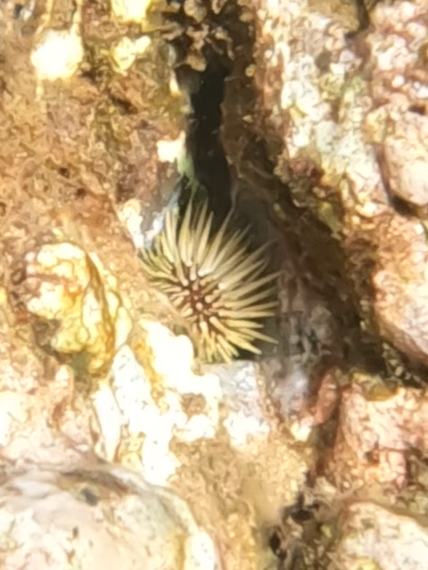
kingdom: Animalia
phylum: Echinodermata
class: Echinoidea
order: Camarodonta
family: Echinometridae
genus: Echinometra
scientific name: Echinometra mathaei
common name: Rock-boring urchin
